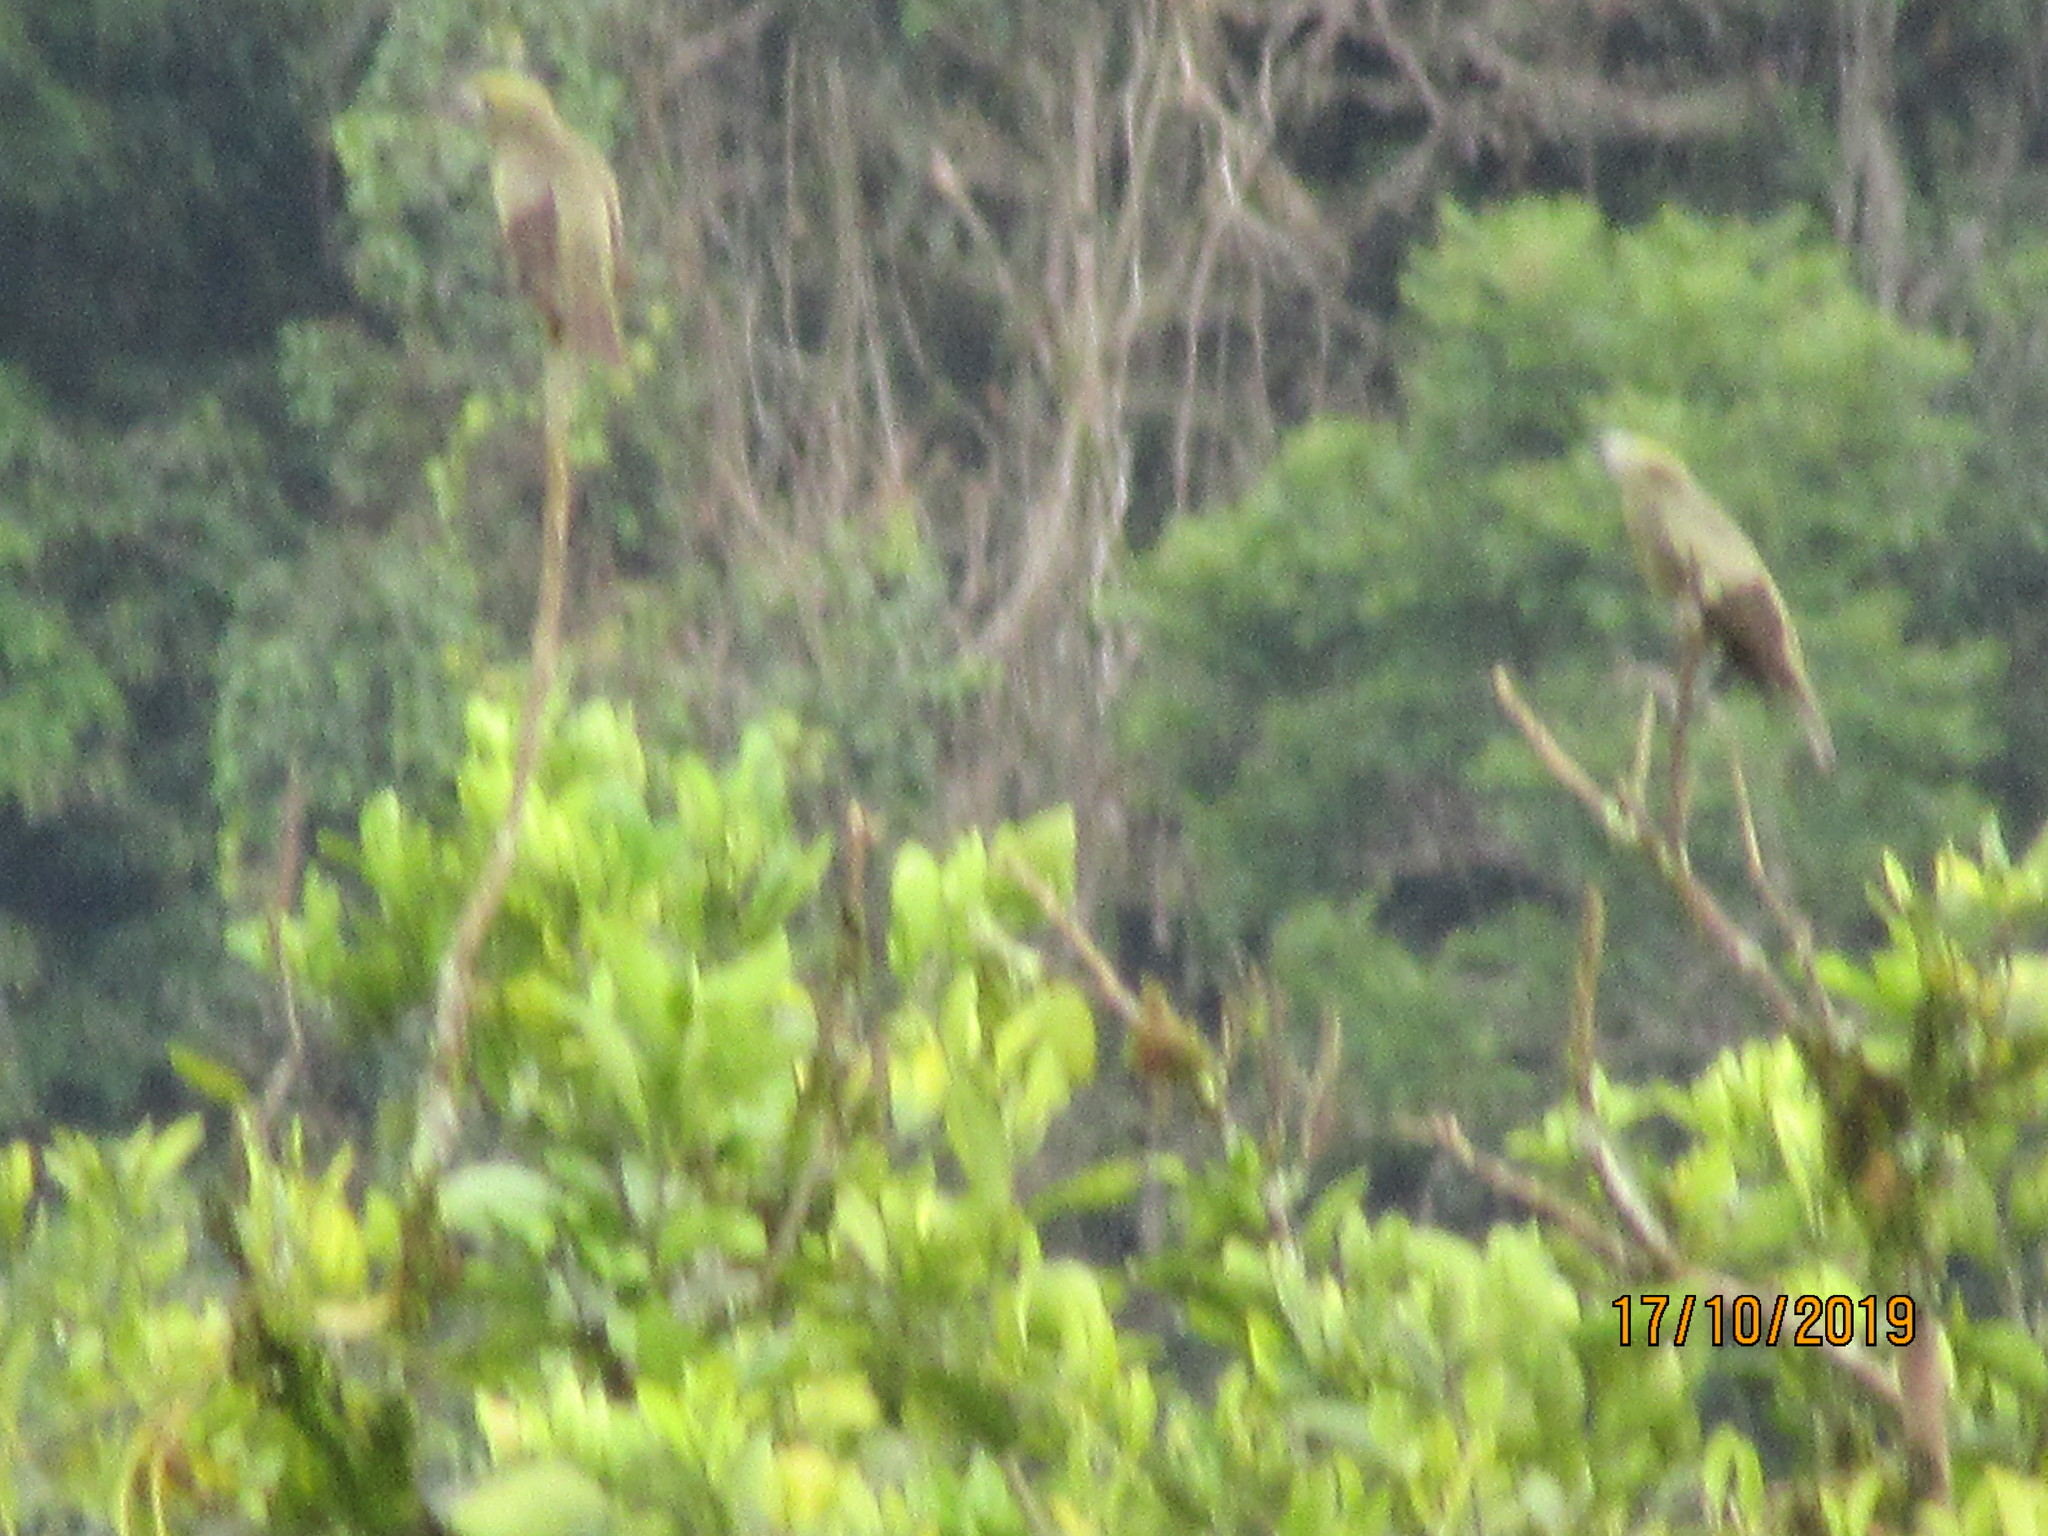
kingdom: Animalia
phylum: Chordata
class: Aves
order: Passeriformes
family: Thraupidae
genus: Thraupis
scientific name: Thraupis palmarum
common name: Palm tanager
